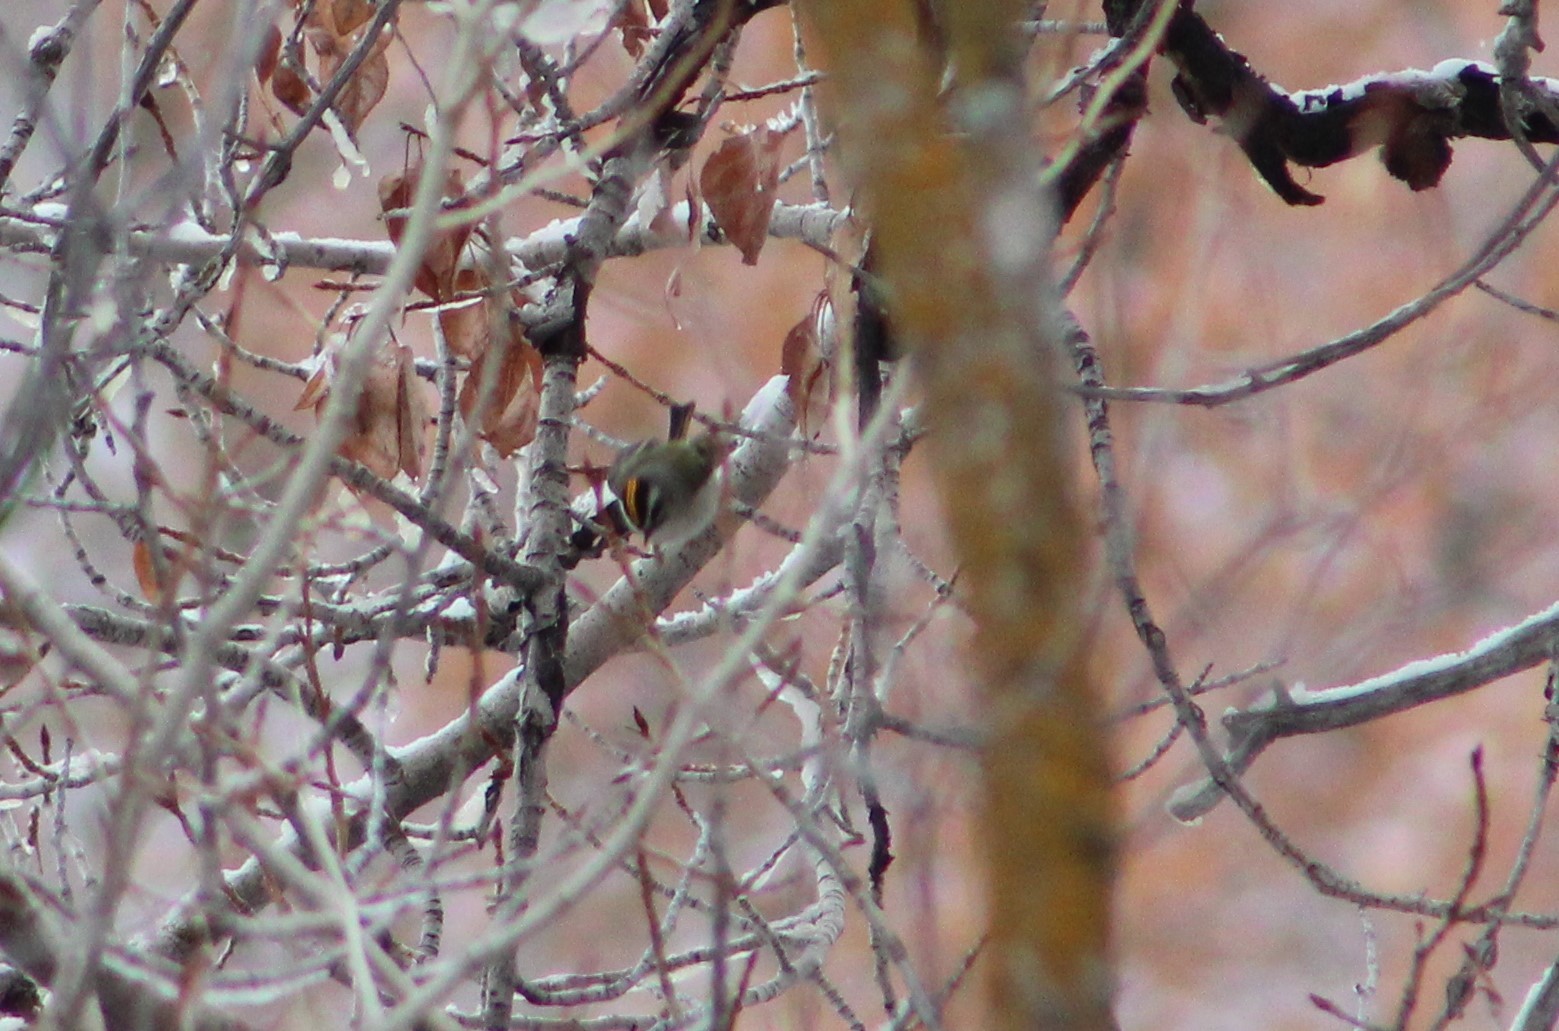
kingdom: Animalia
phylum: Chordata
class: Aves
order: Passeriformes
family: Regulidae
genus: Regulus
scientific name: Regulus satrapa
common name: Golden-crowned kinglet
